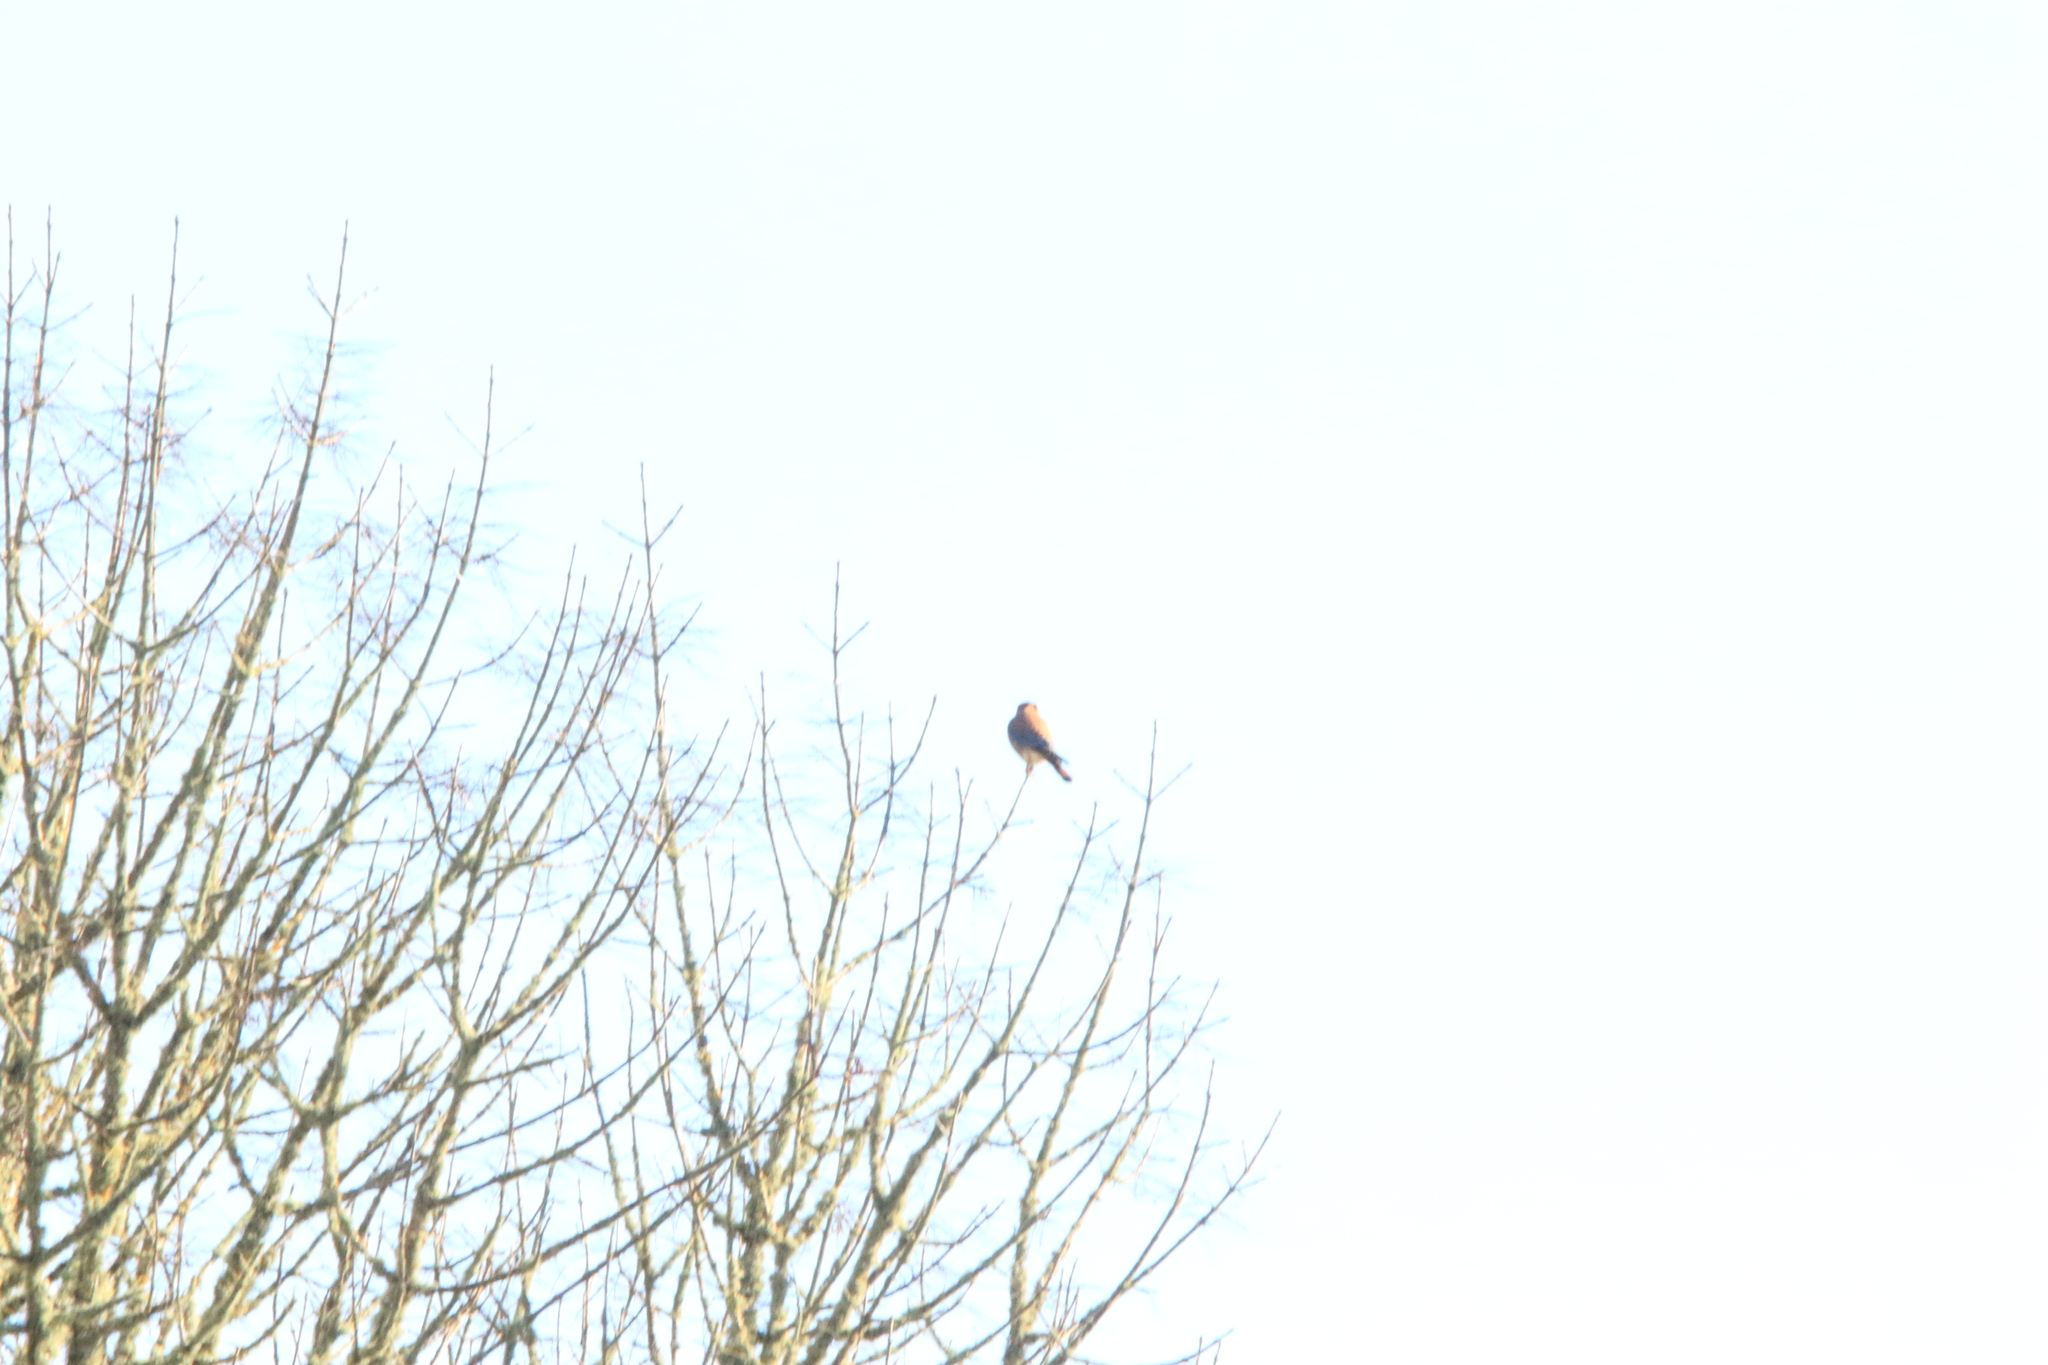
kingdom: Animalia
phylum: Chordata
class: Aves
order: Falconiformes
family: Falconidae
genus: Falco
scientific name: Falco sparverius
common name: American kestrel
